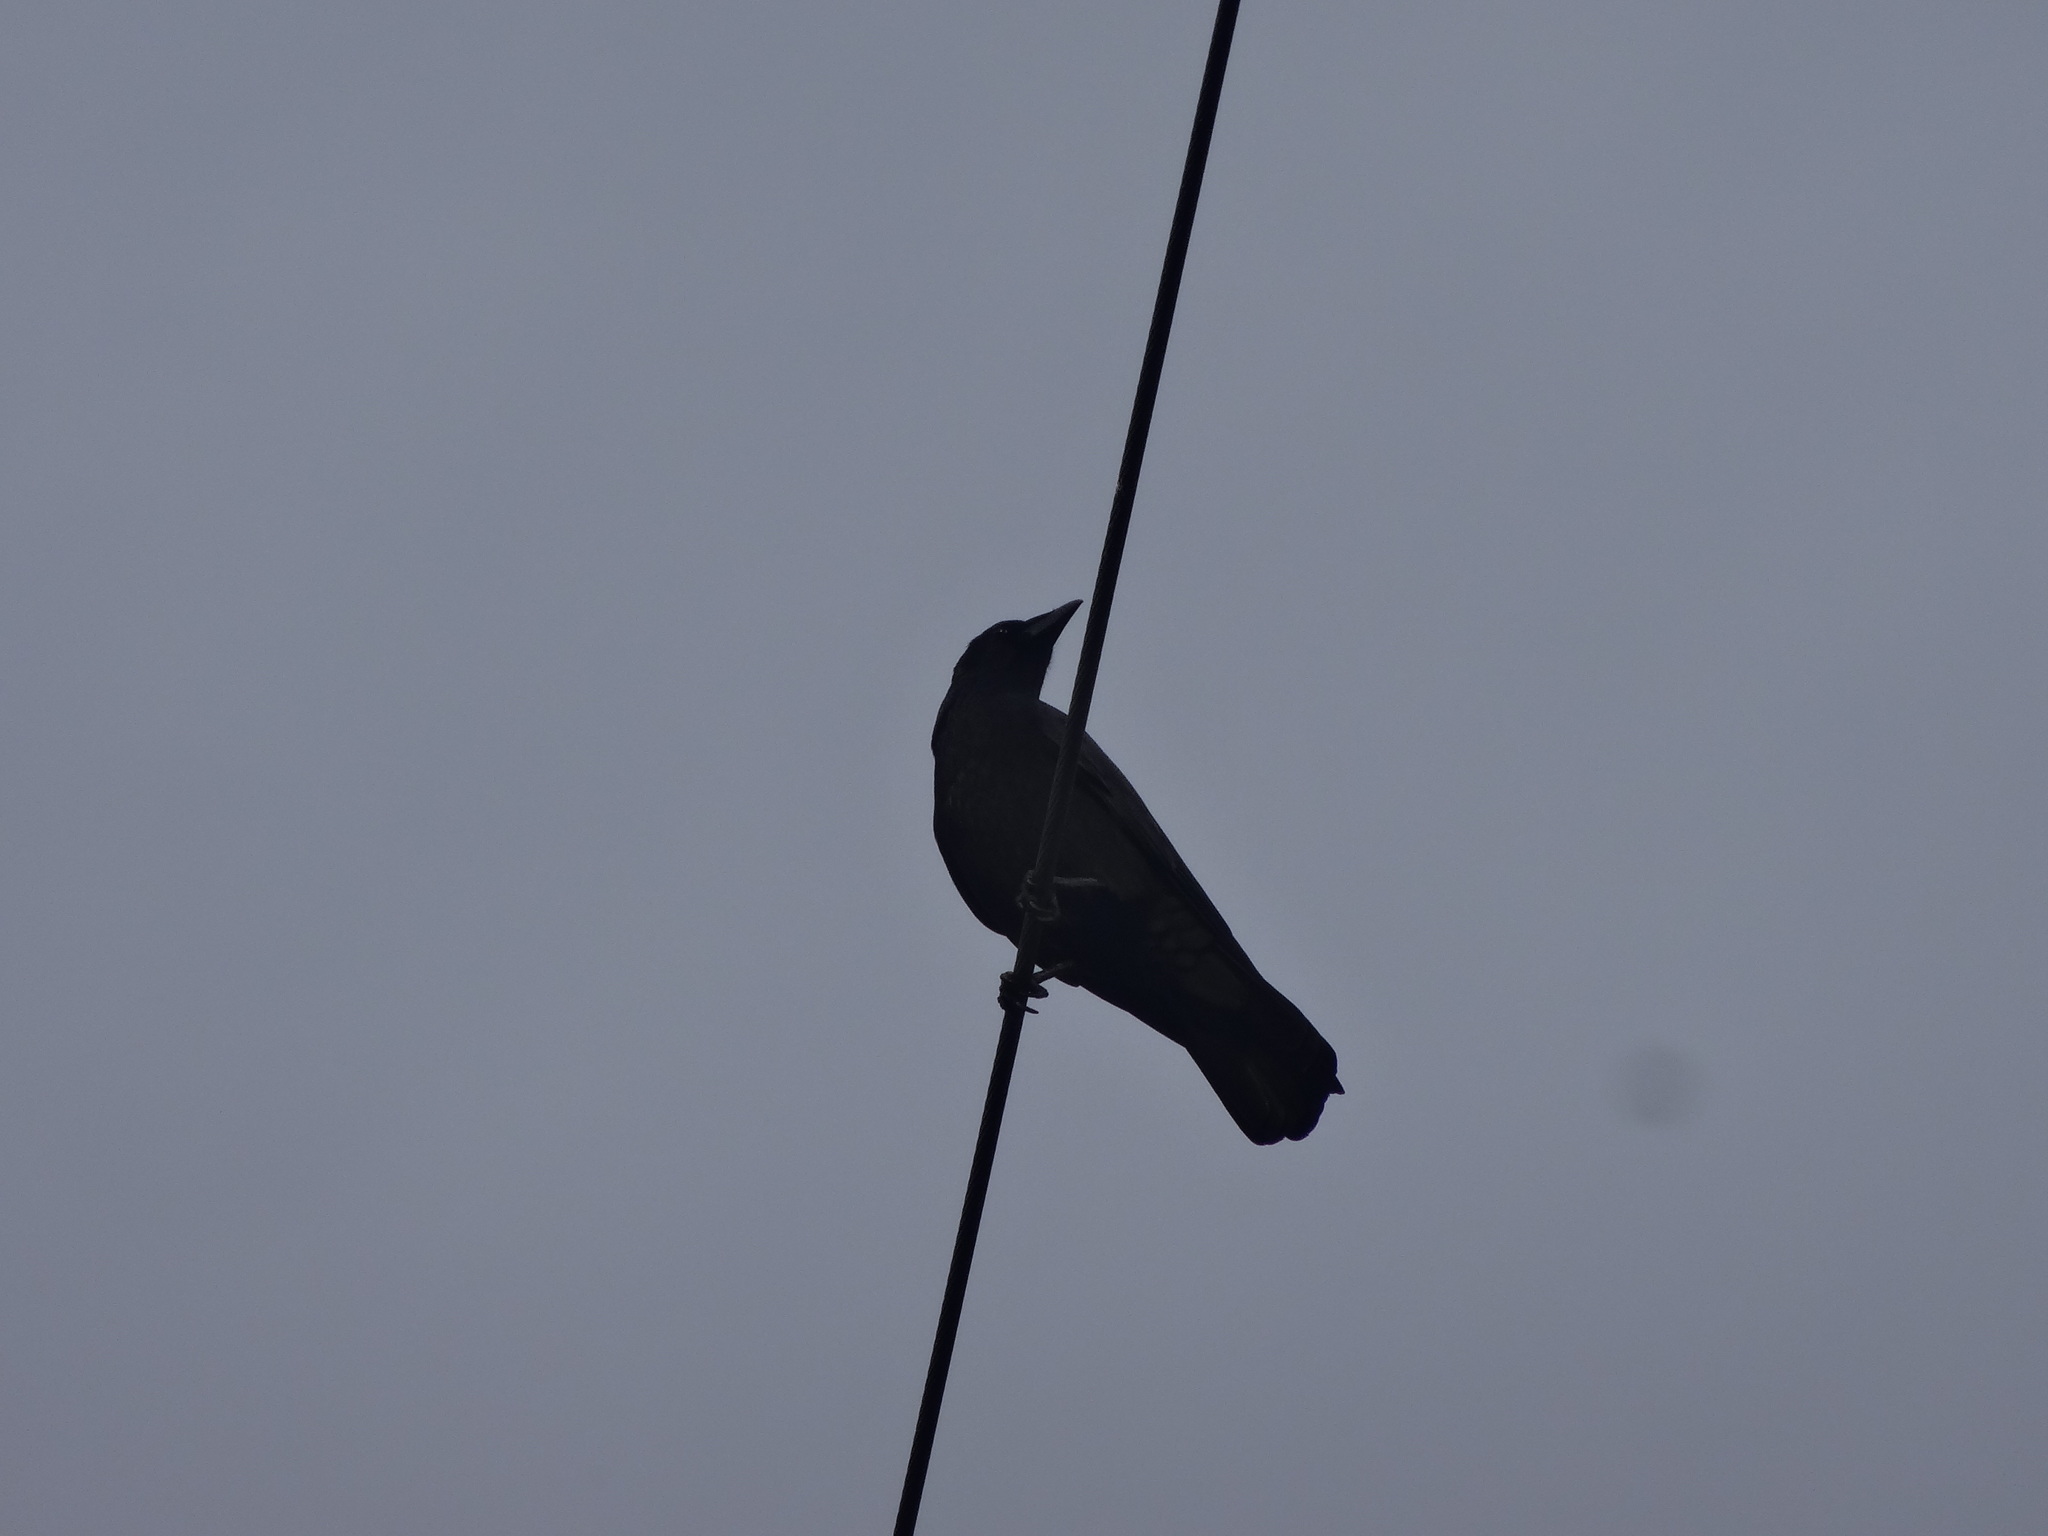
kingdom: Animalia
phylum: Chordata
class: Aves
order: Passeriformes
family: Corvidae
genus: Corvus
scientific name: Corvus corone
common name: Carrion crow
